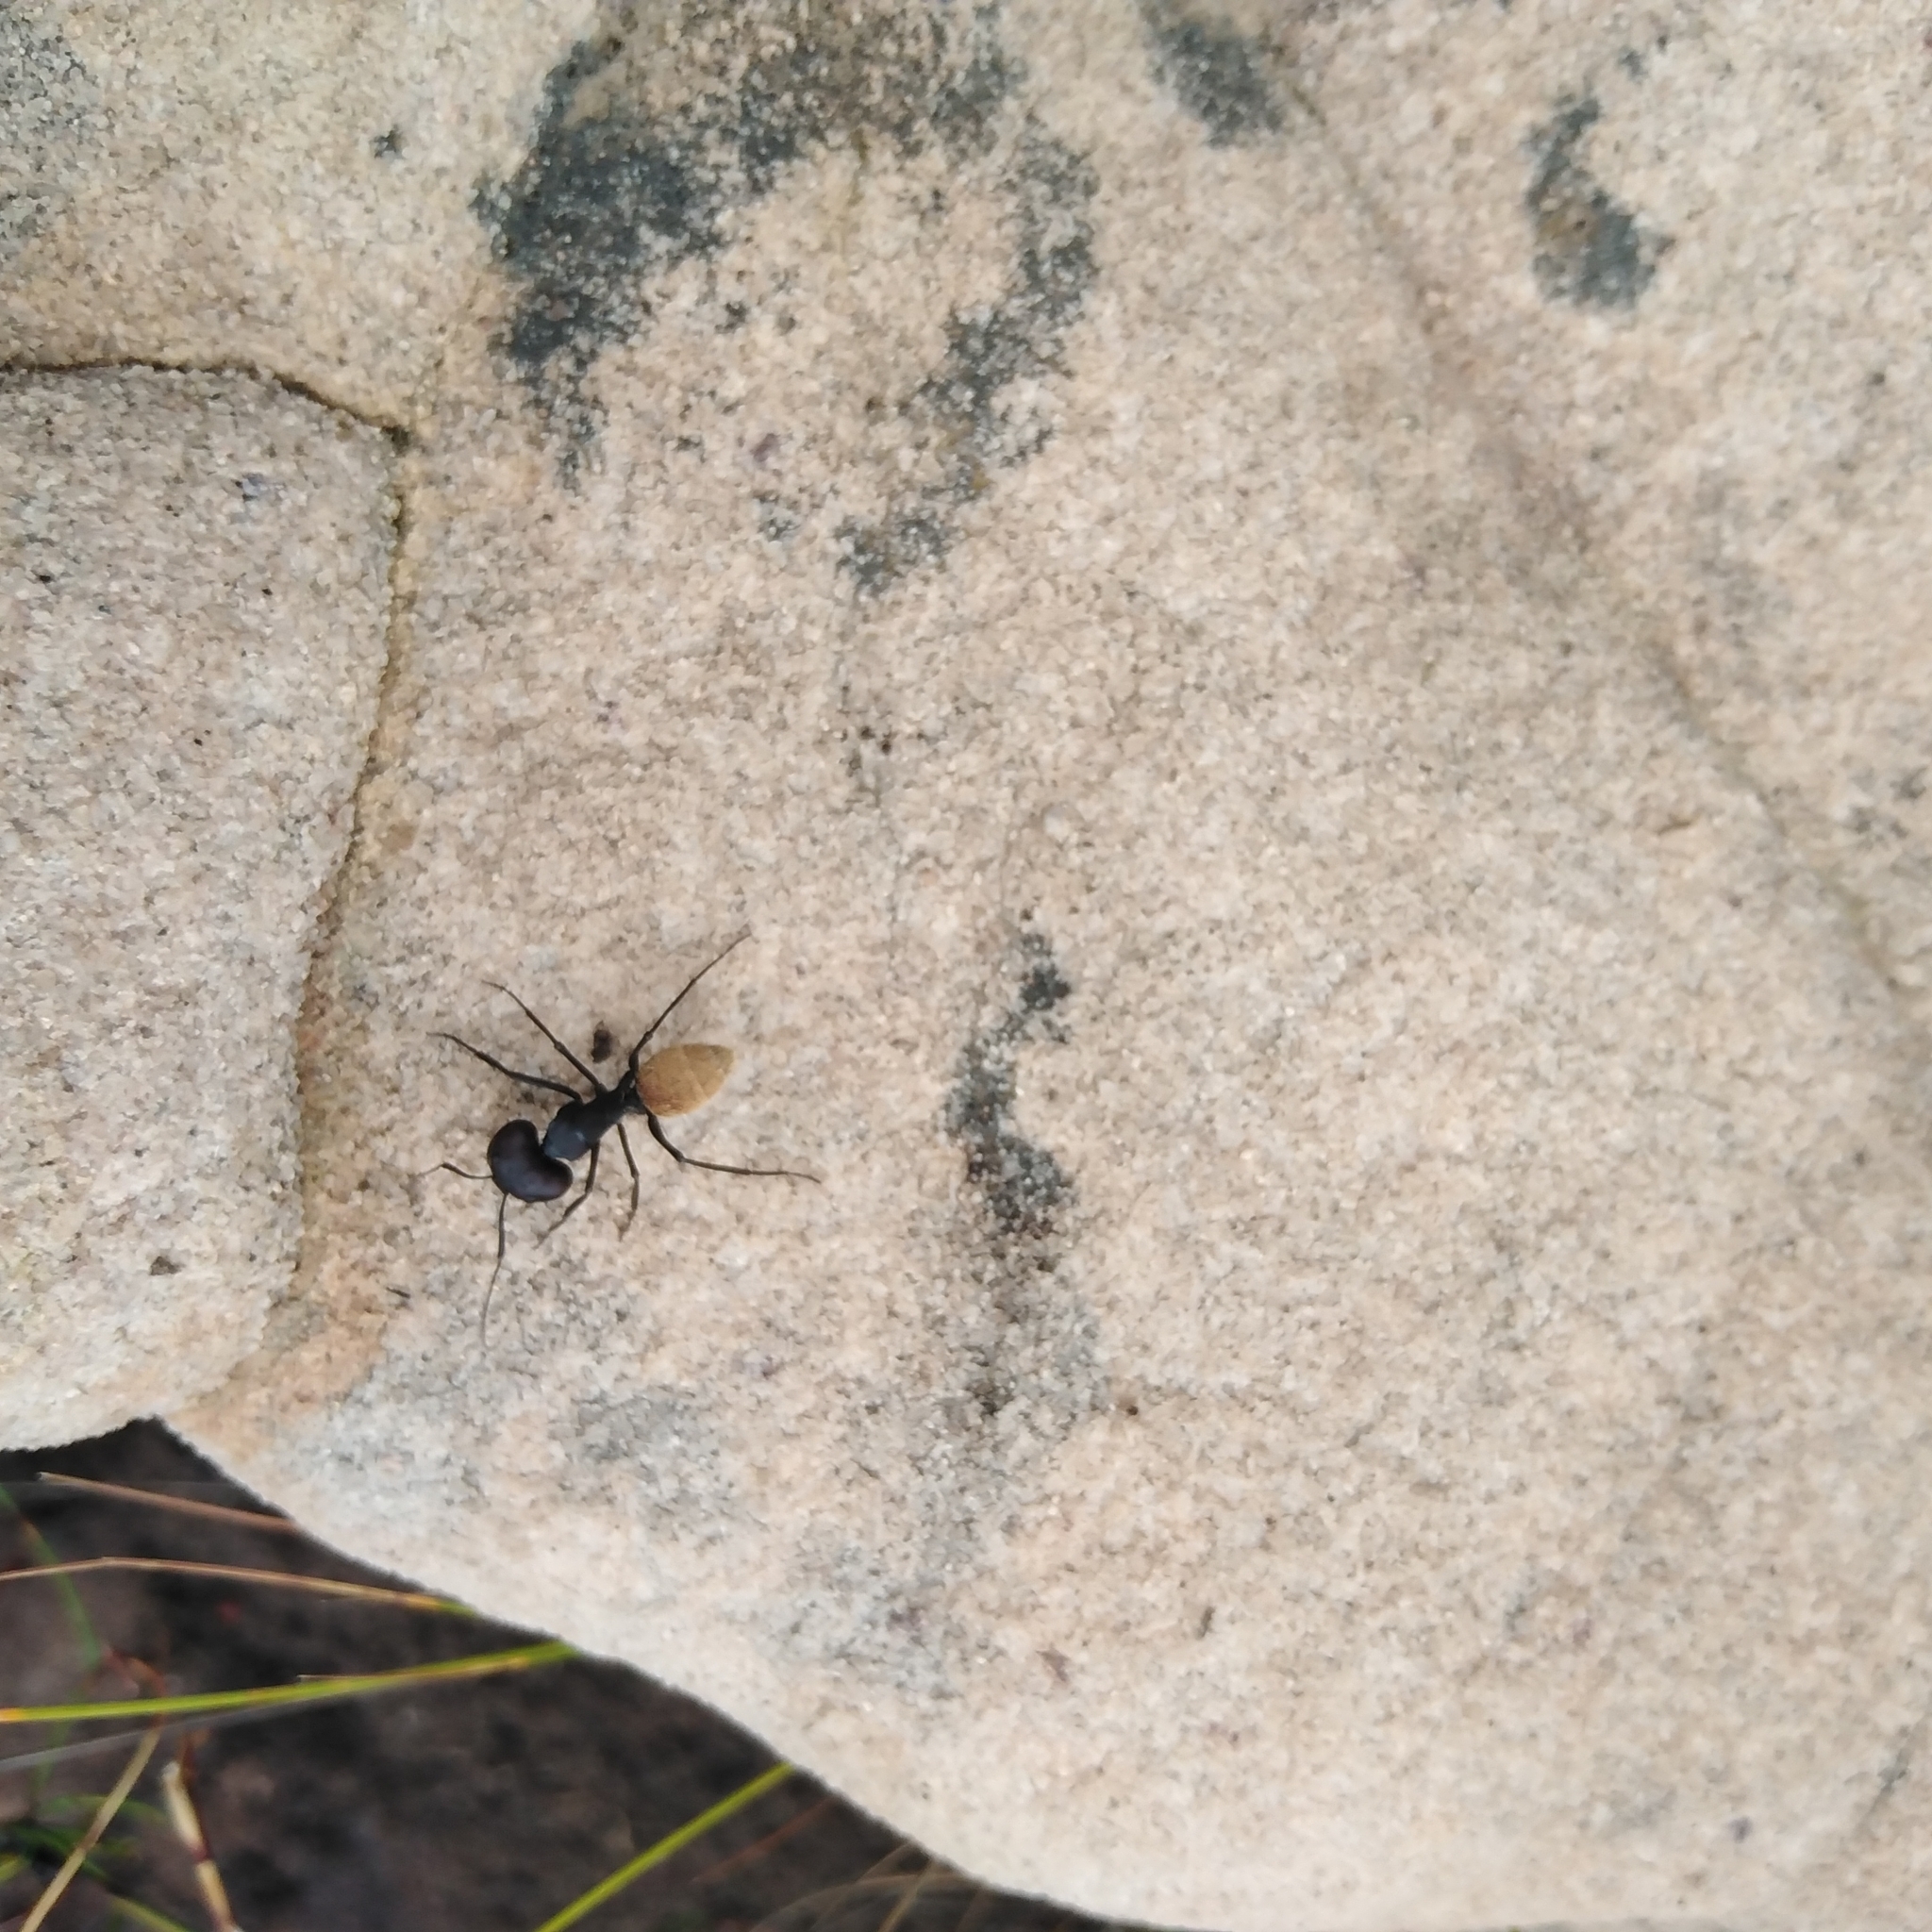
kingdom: Animalia
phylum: Arthropoda
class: Insecta
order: Hymenoptera
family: Formicidae
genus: Camponotus
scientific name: Camponotus fulvopilosus
